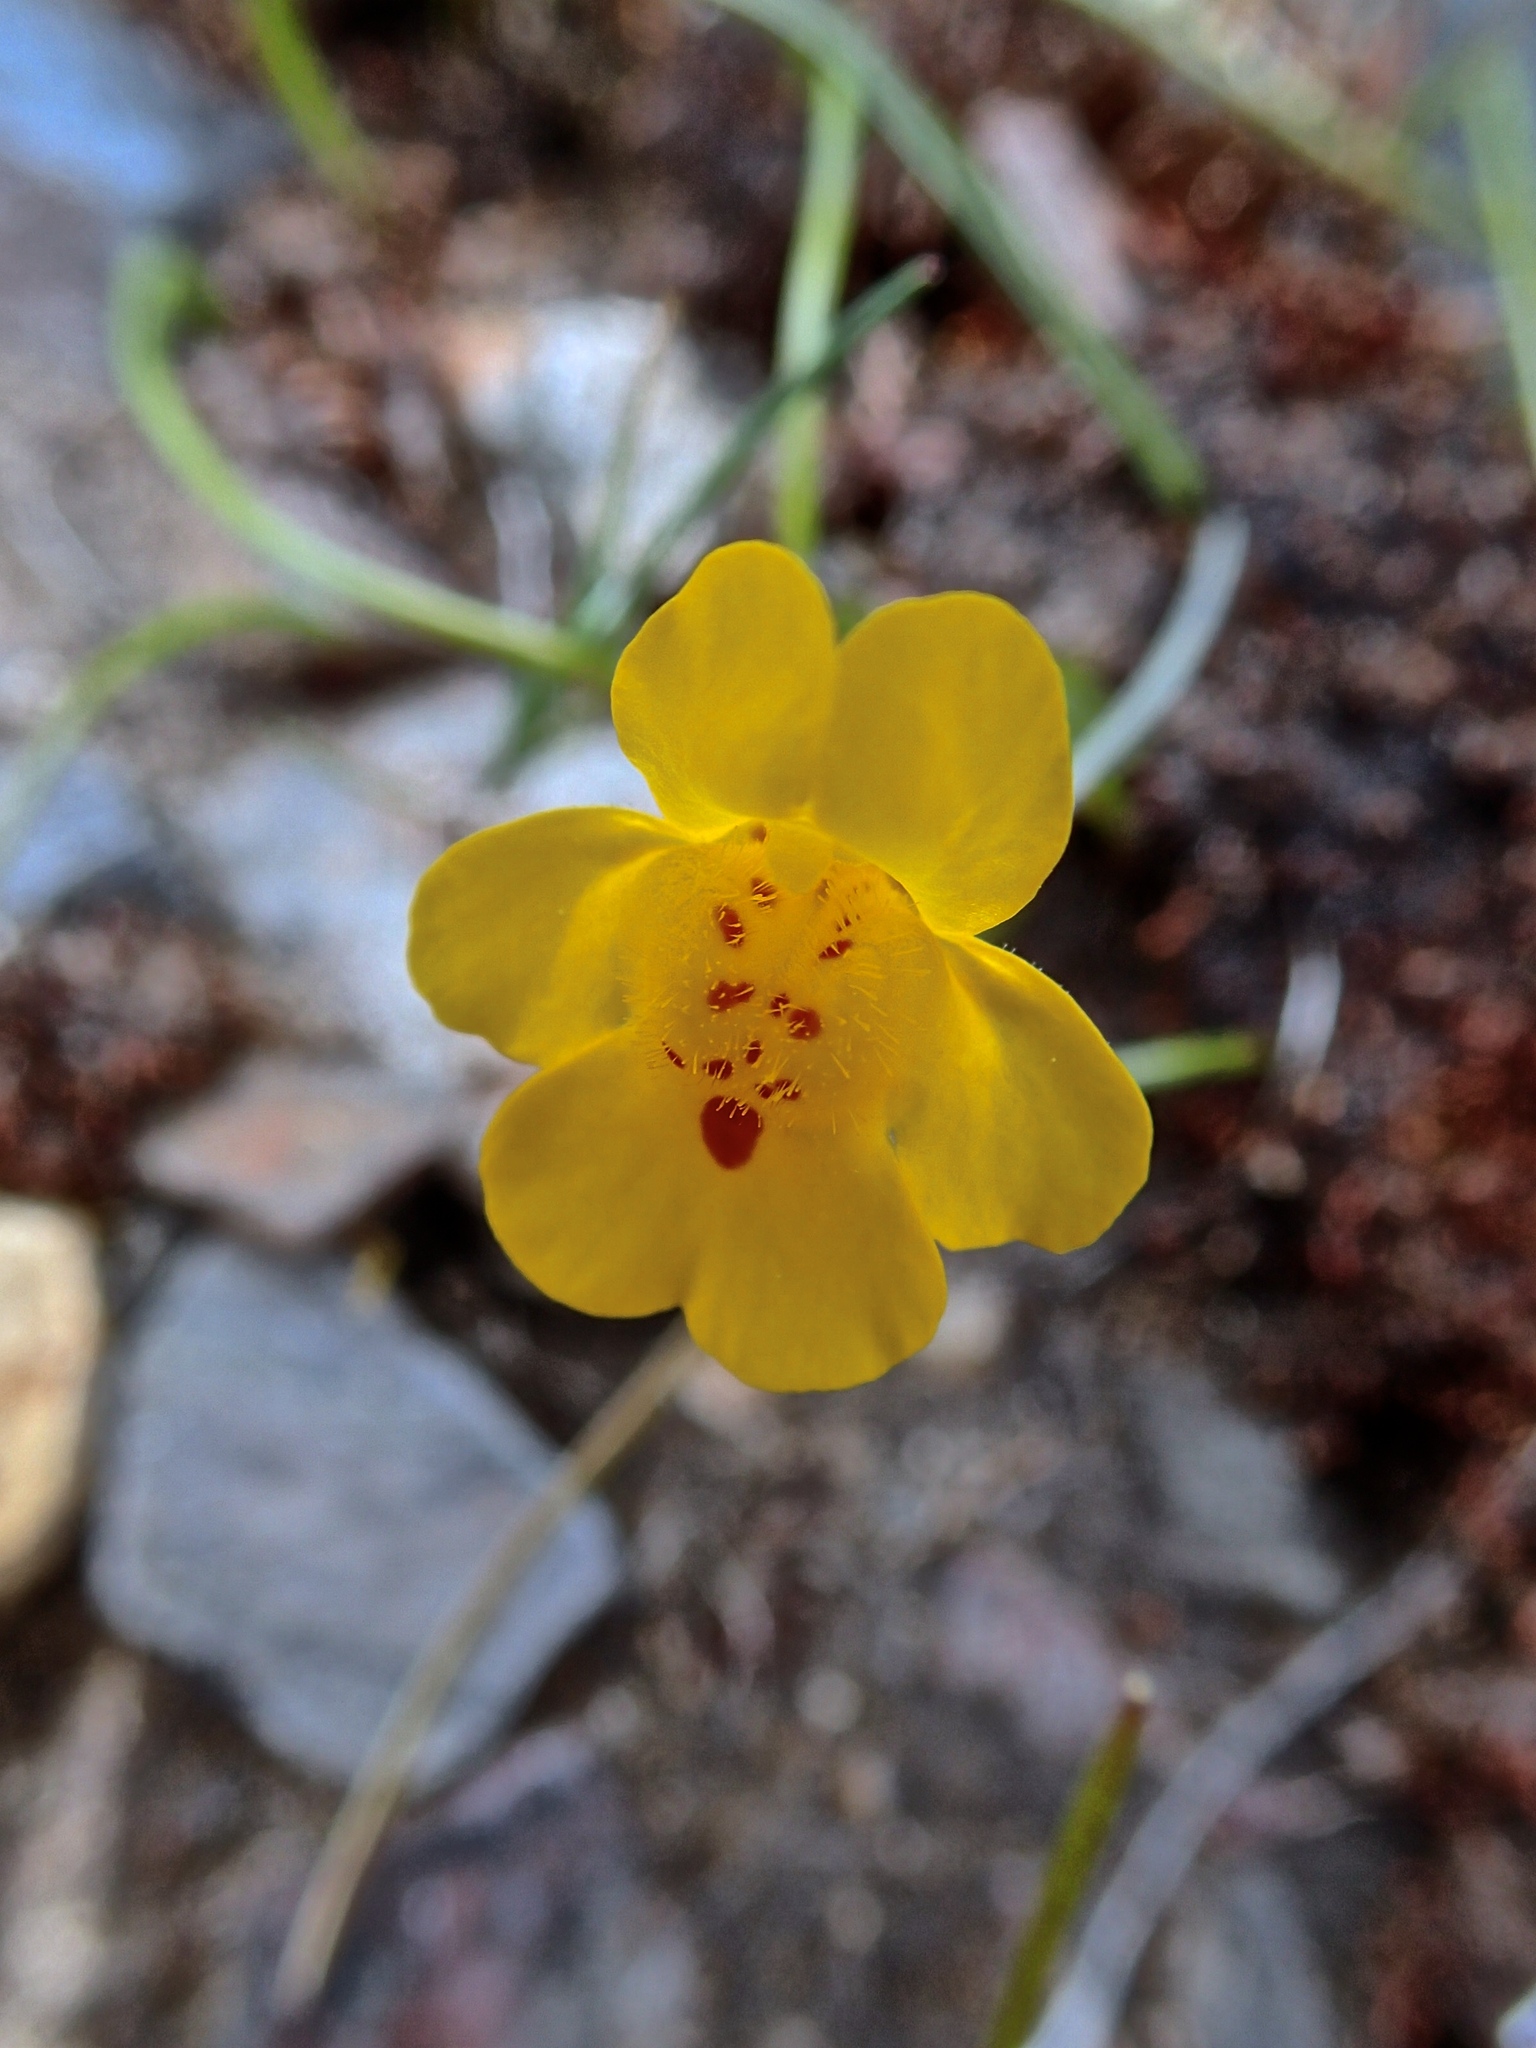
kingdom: Plantae
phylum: Tracheophyta
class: Magnoliopsida
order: Lamiales
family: Phrymaceae
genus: Erythranthe
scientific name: Erythranthe guttata
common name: Monkeyflower
